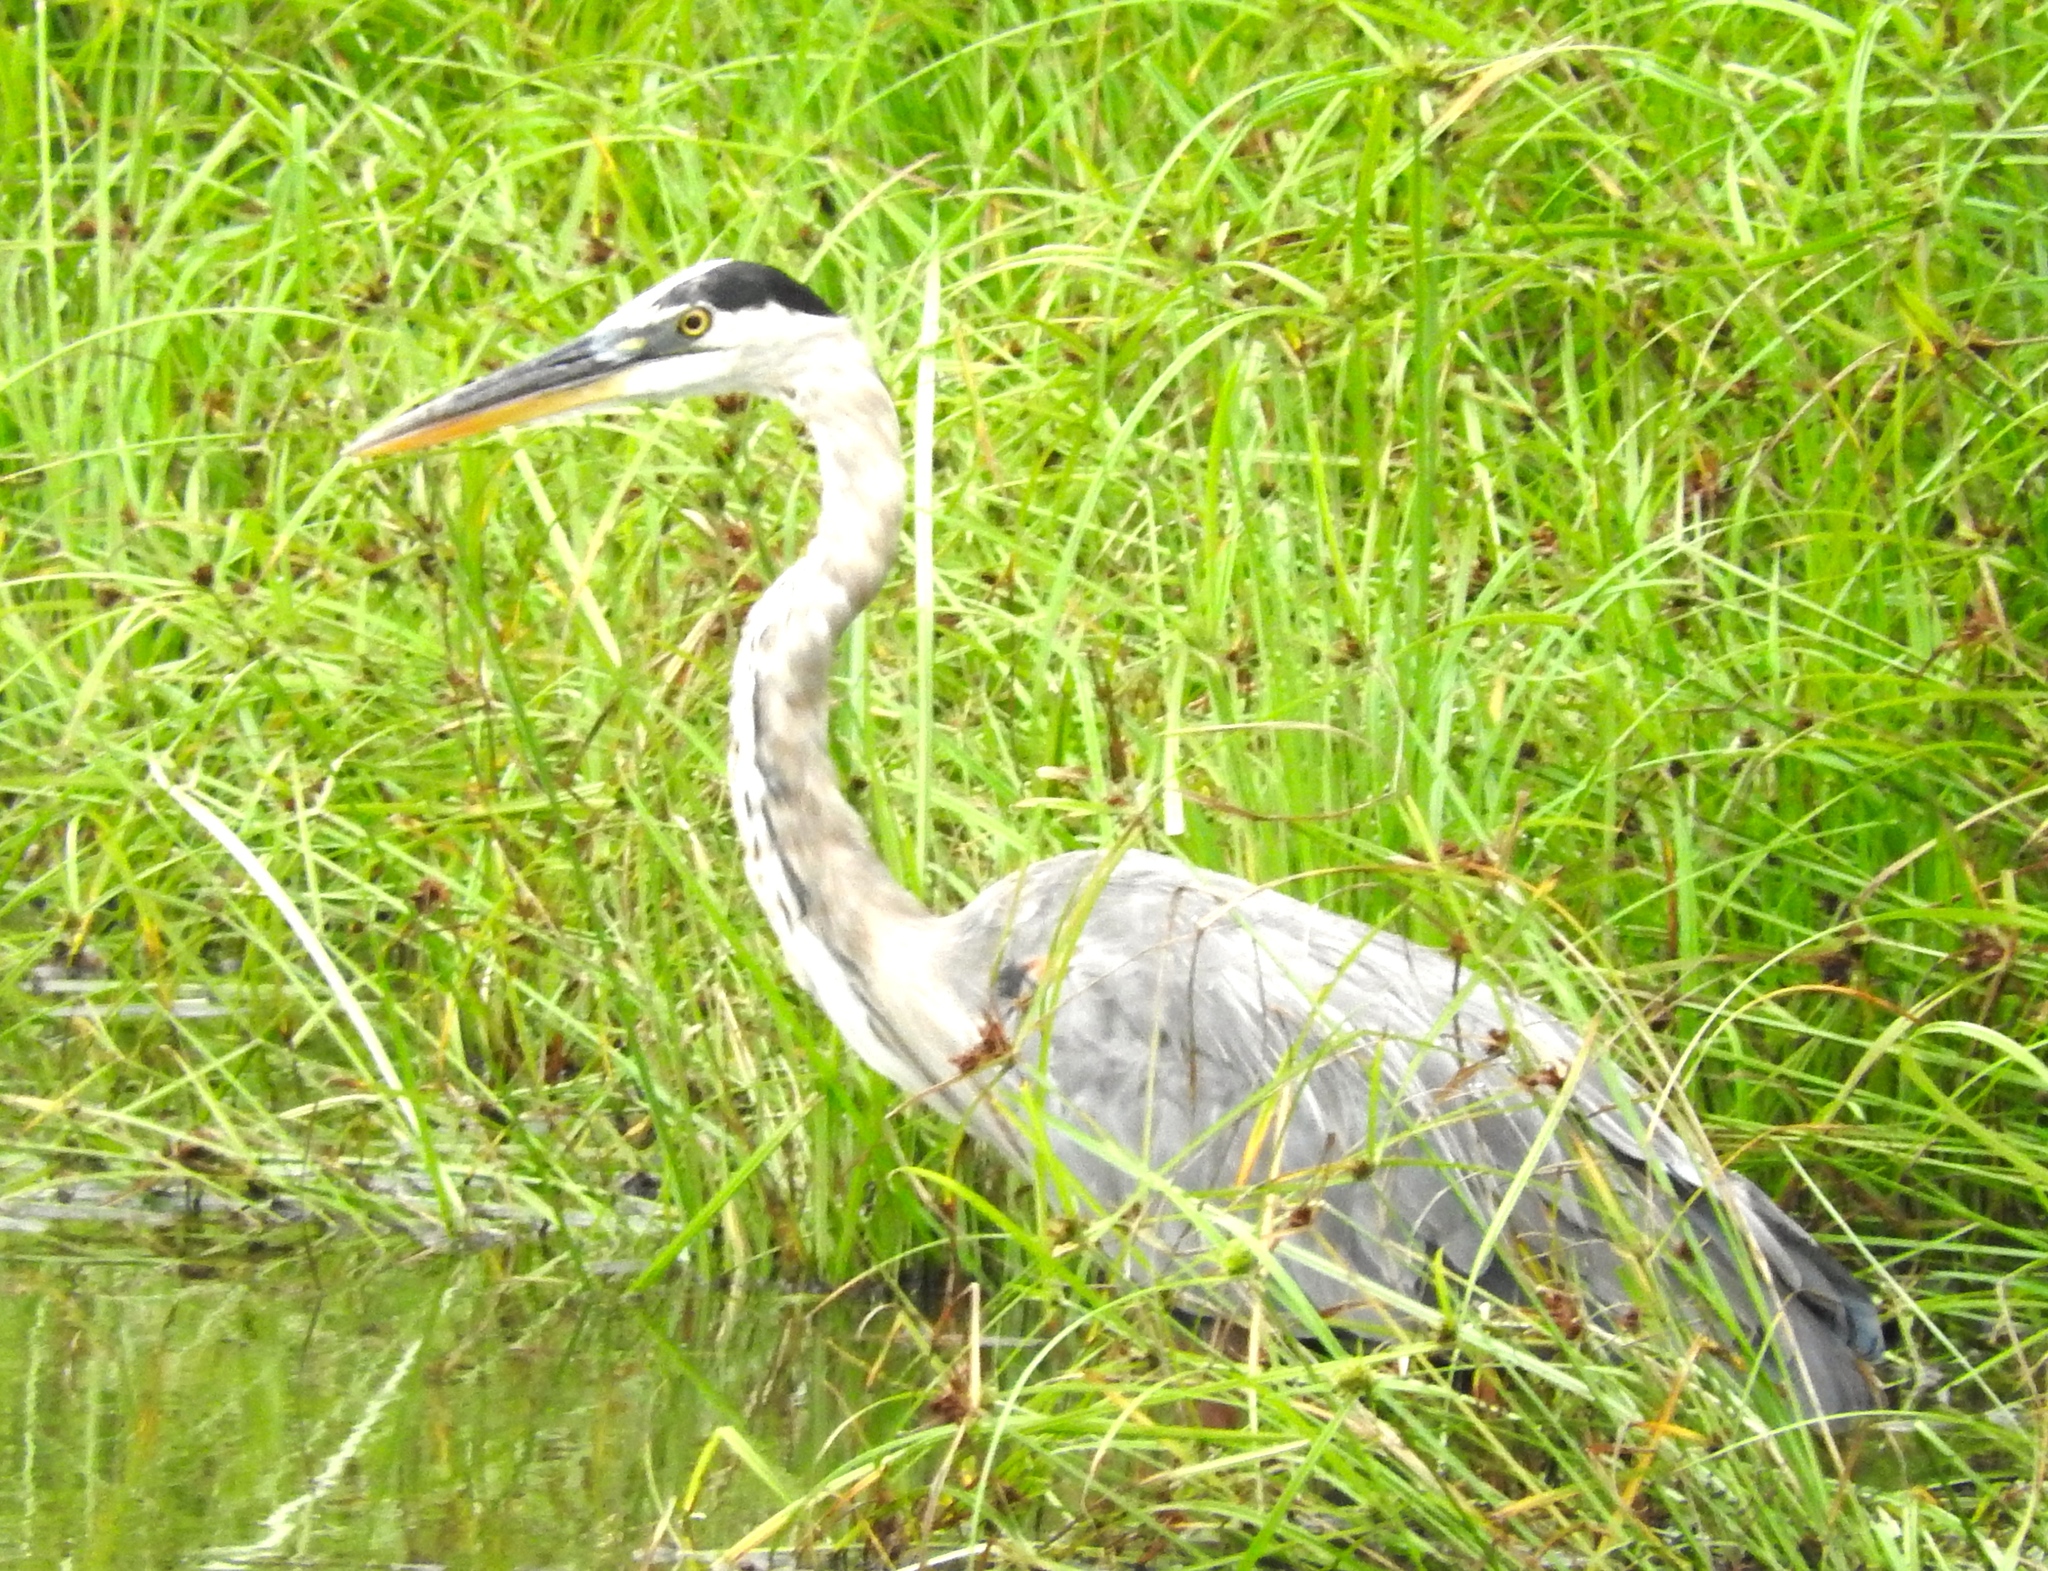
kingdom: Animalia
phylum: Chordata
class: Aves
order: Pelecaniformes
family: Ardeidae
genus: Ardea
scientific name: Ardea herodias
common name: Great blue heron
